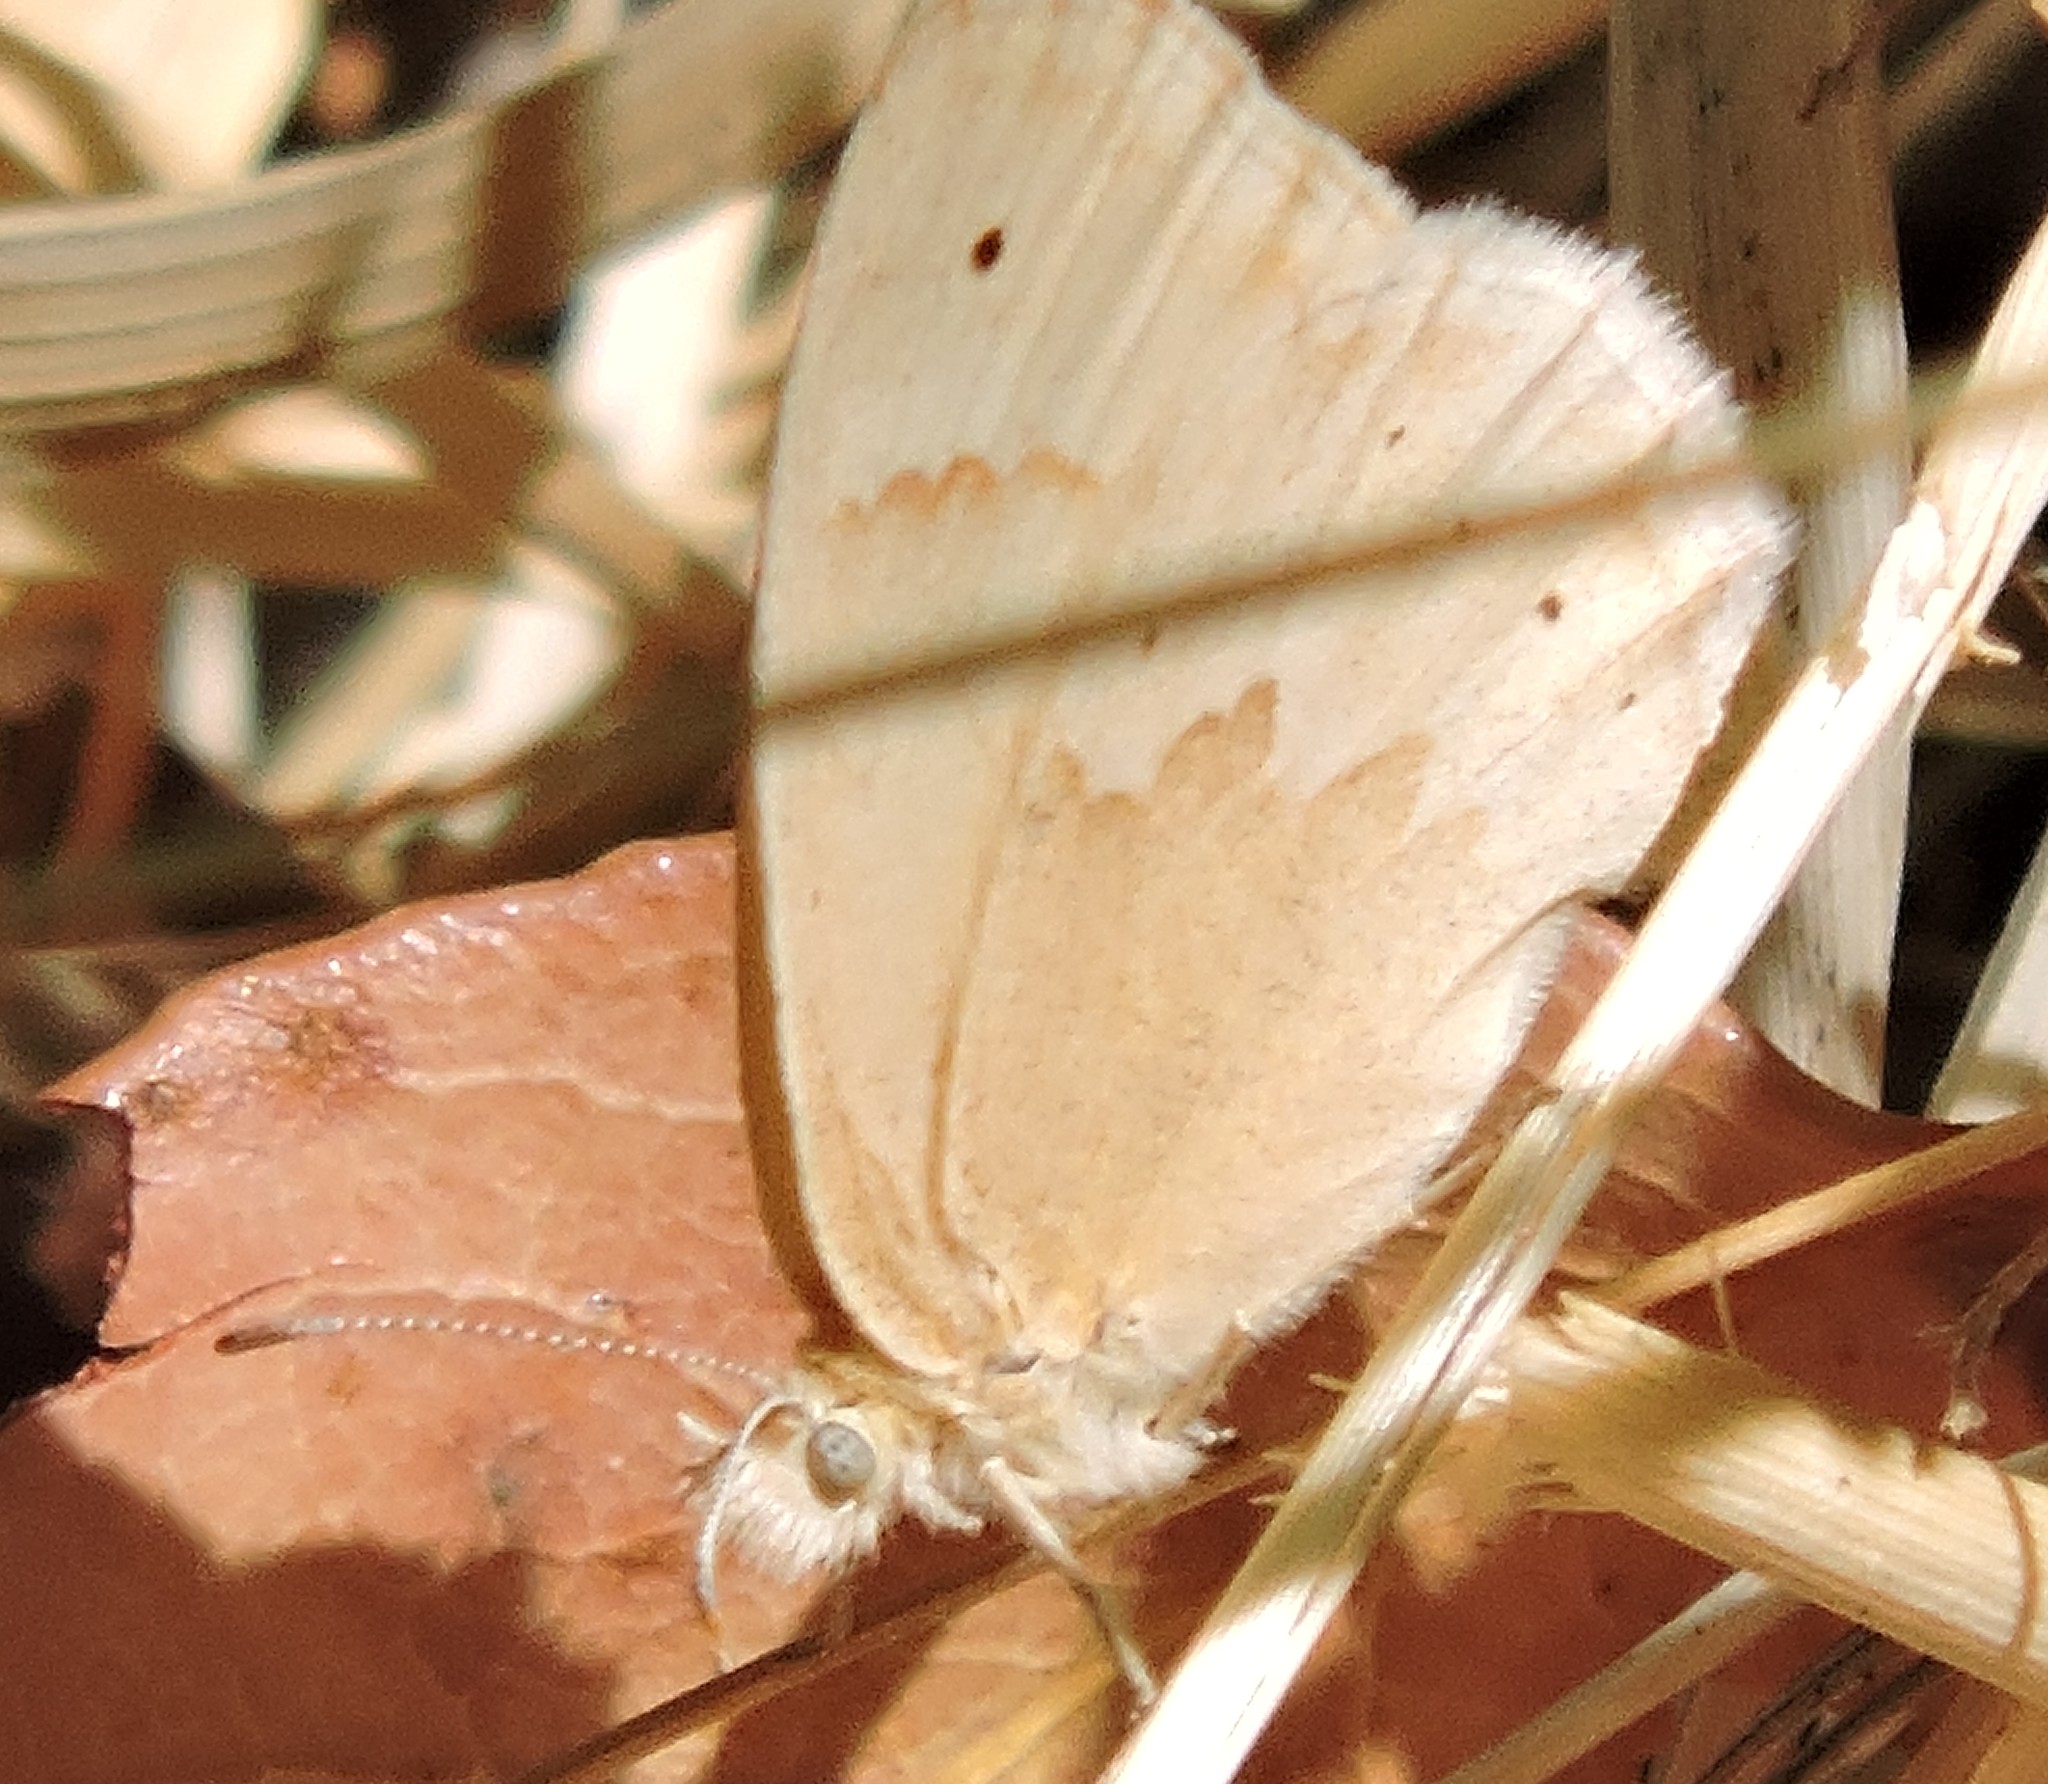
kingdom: Animalia
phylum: Arthropoda
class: Insecta
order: Lepidoptera
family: Nymphalidae
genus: Coenonympha
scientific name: Coenonympha california
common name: Common ringlet
